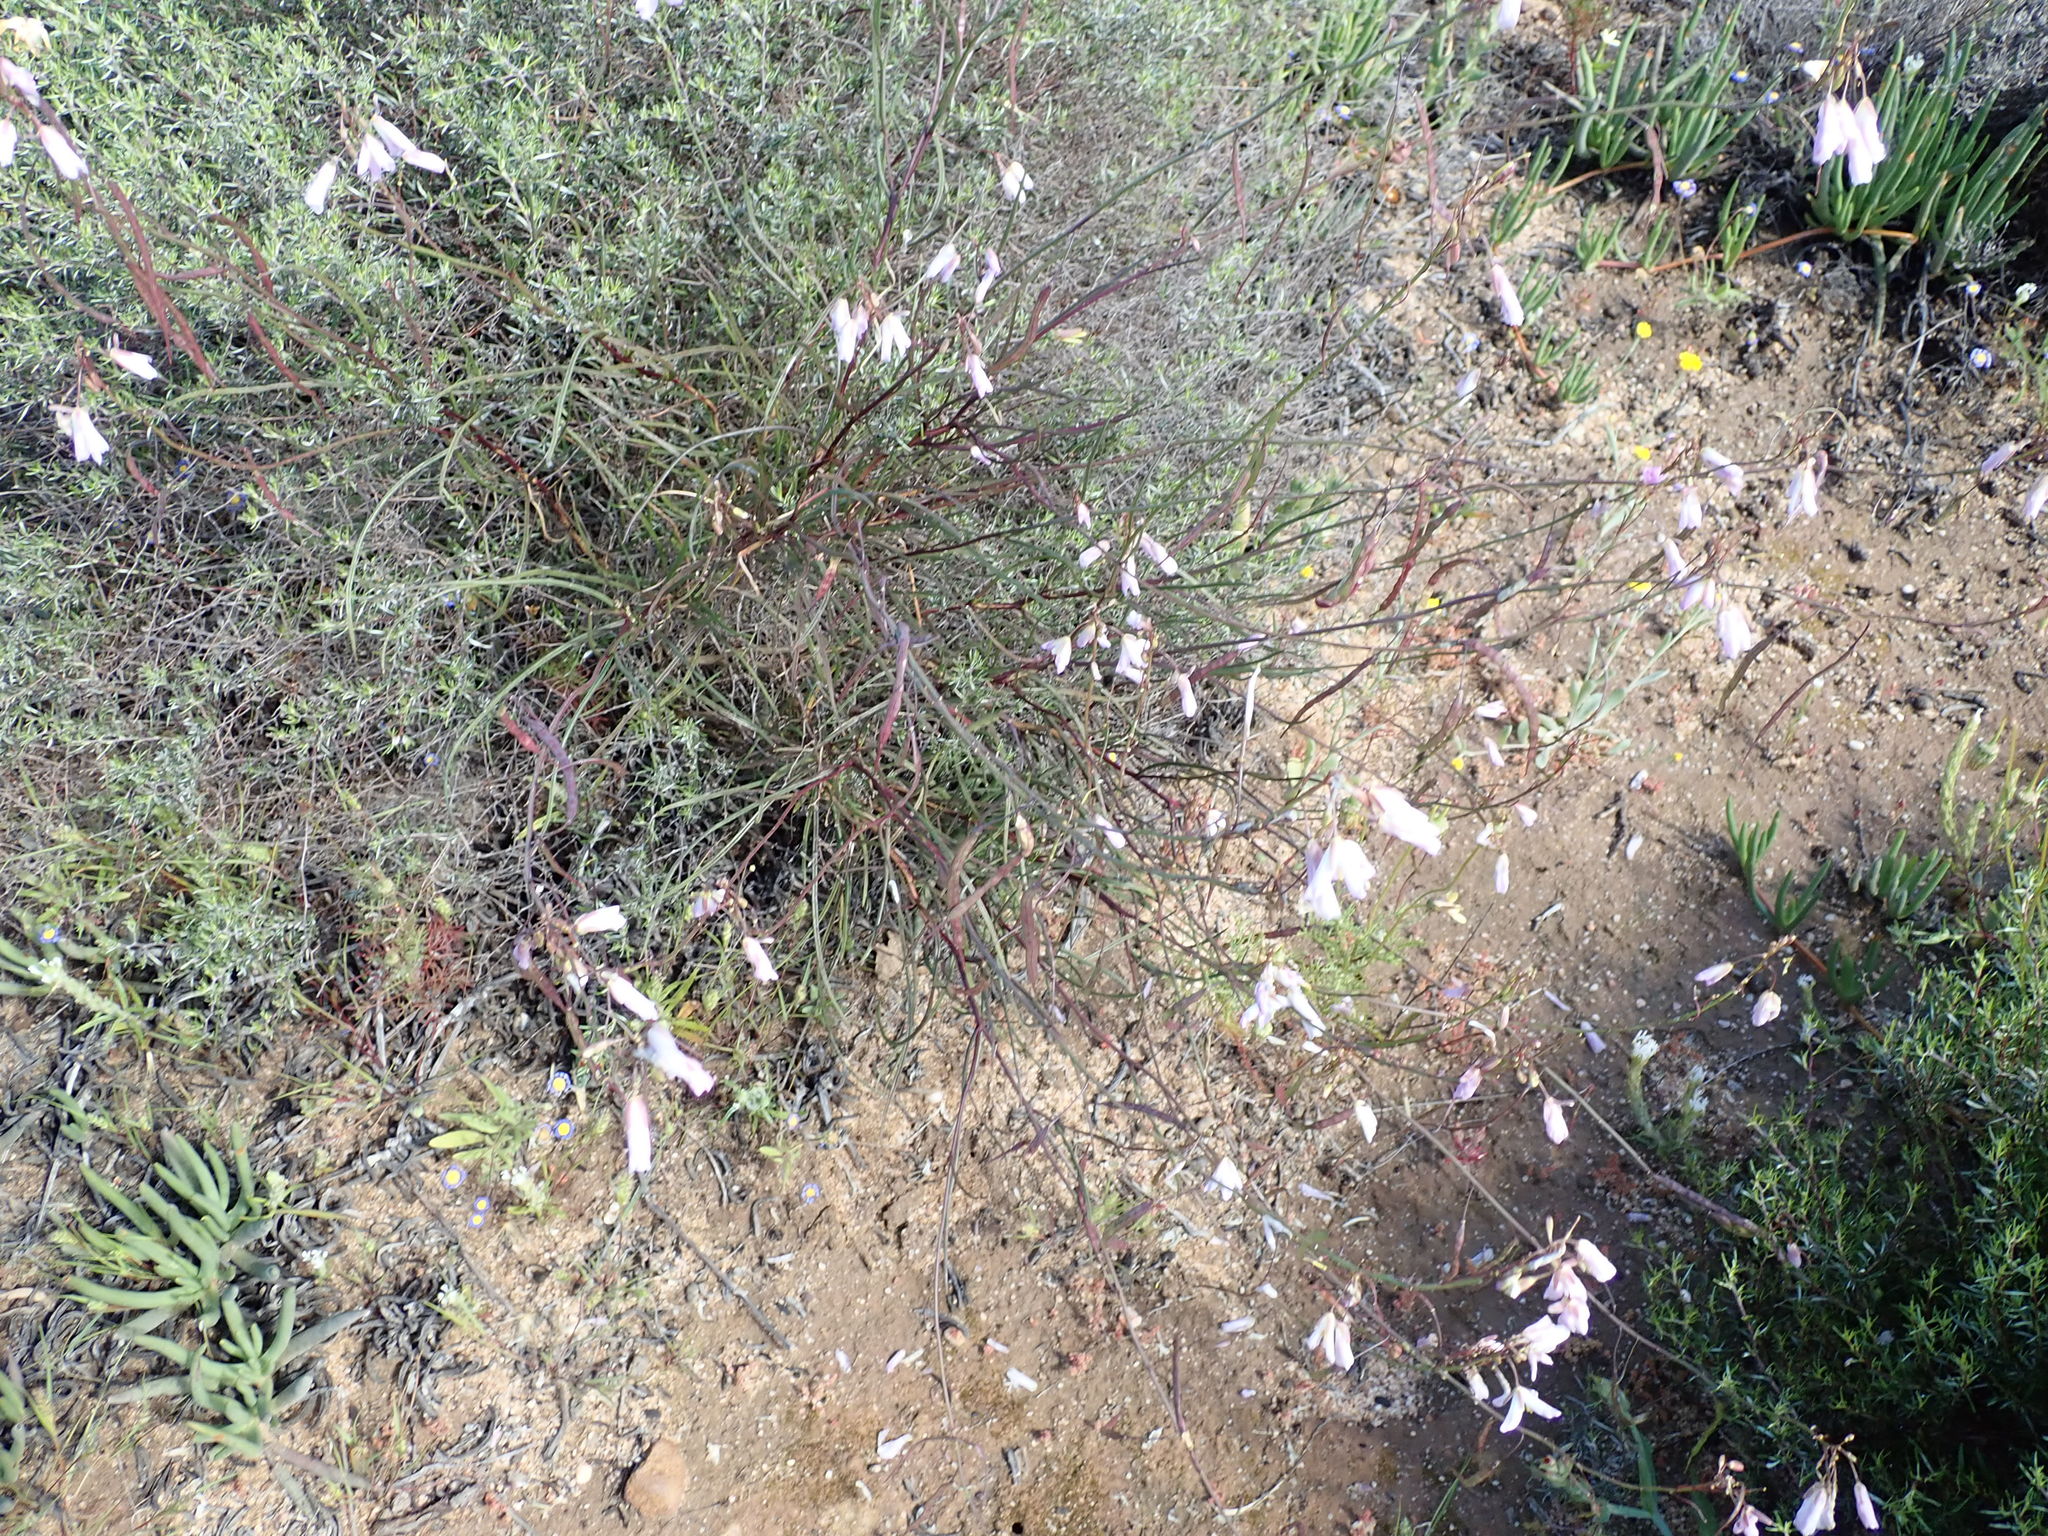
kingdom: Plantae
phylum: Tracheophyta
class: Magnoliopsida
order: Brassicales
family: Brassicaceae
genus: Heliophila
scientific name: Heliophila carnosa
